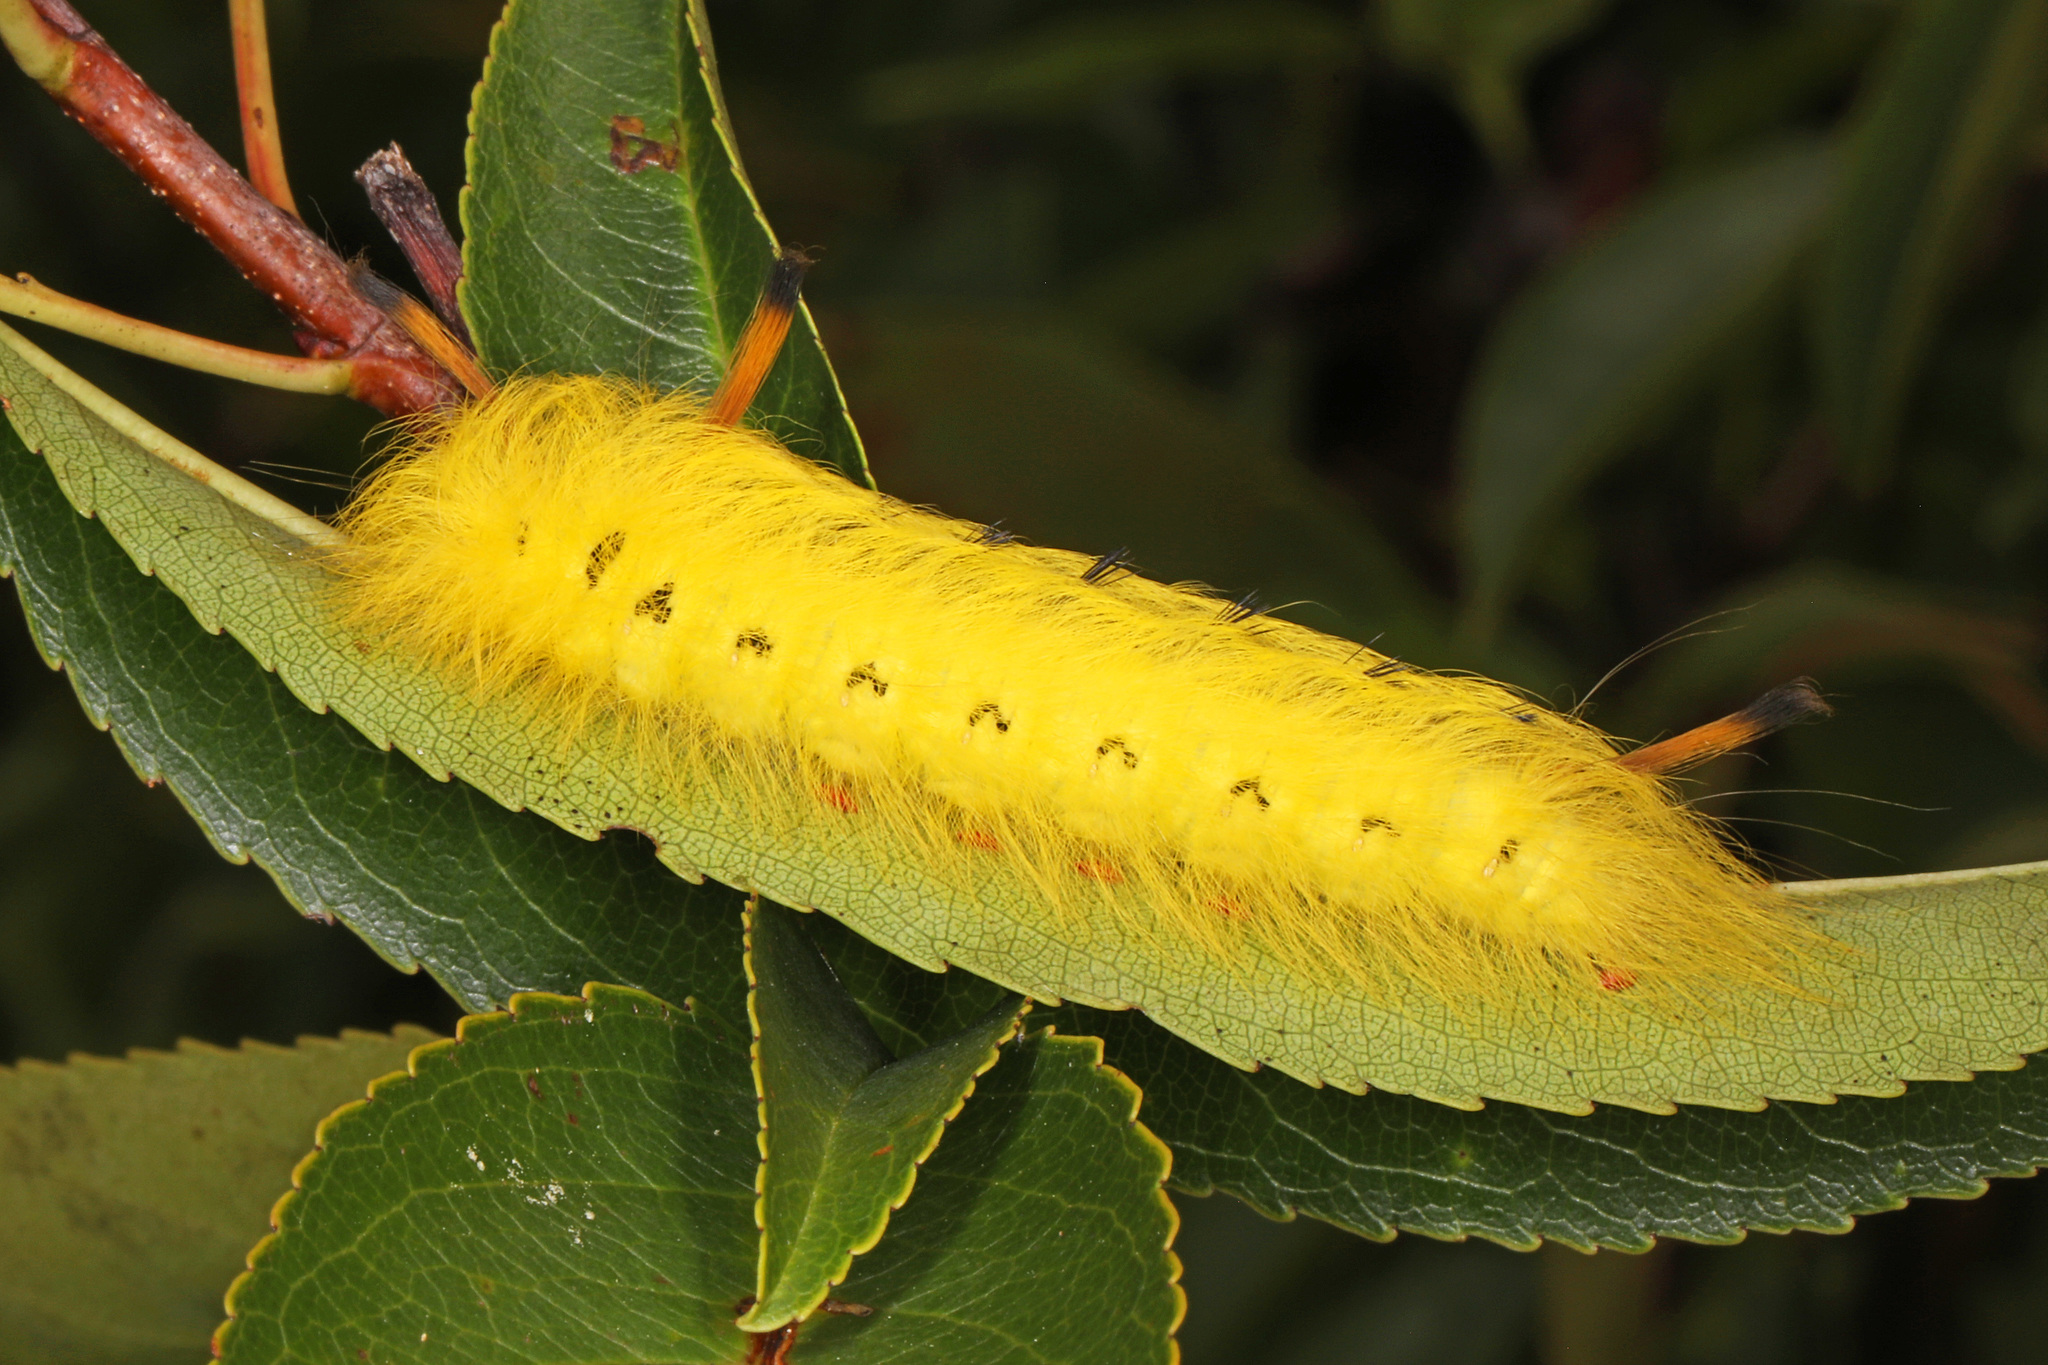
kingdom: Animalia
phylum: Arthropoda
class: Insecta
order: Lepidoptera
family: Apatelodidae
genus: Hygrochroa
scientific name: Hygrochroa Apatelodes torrefacta
